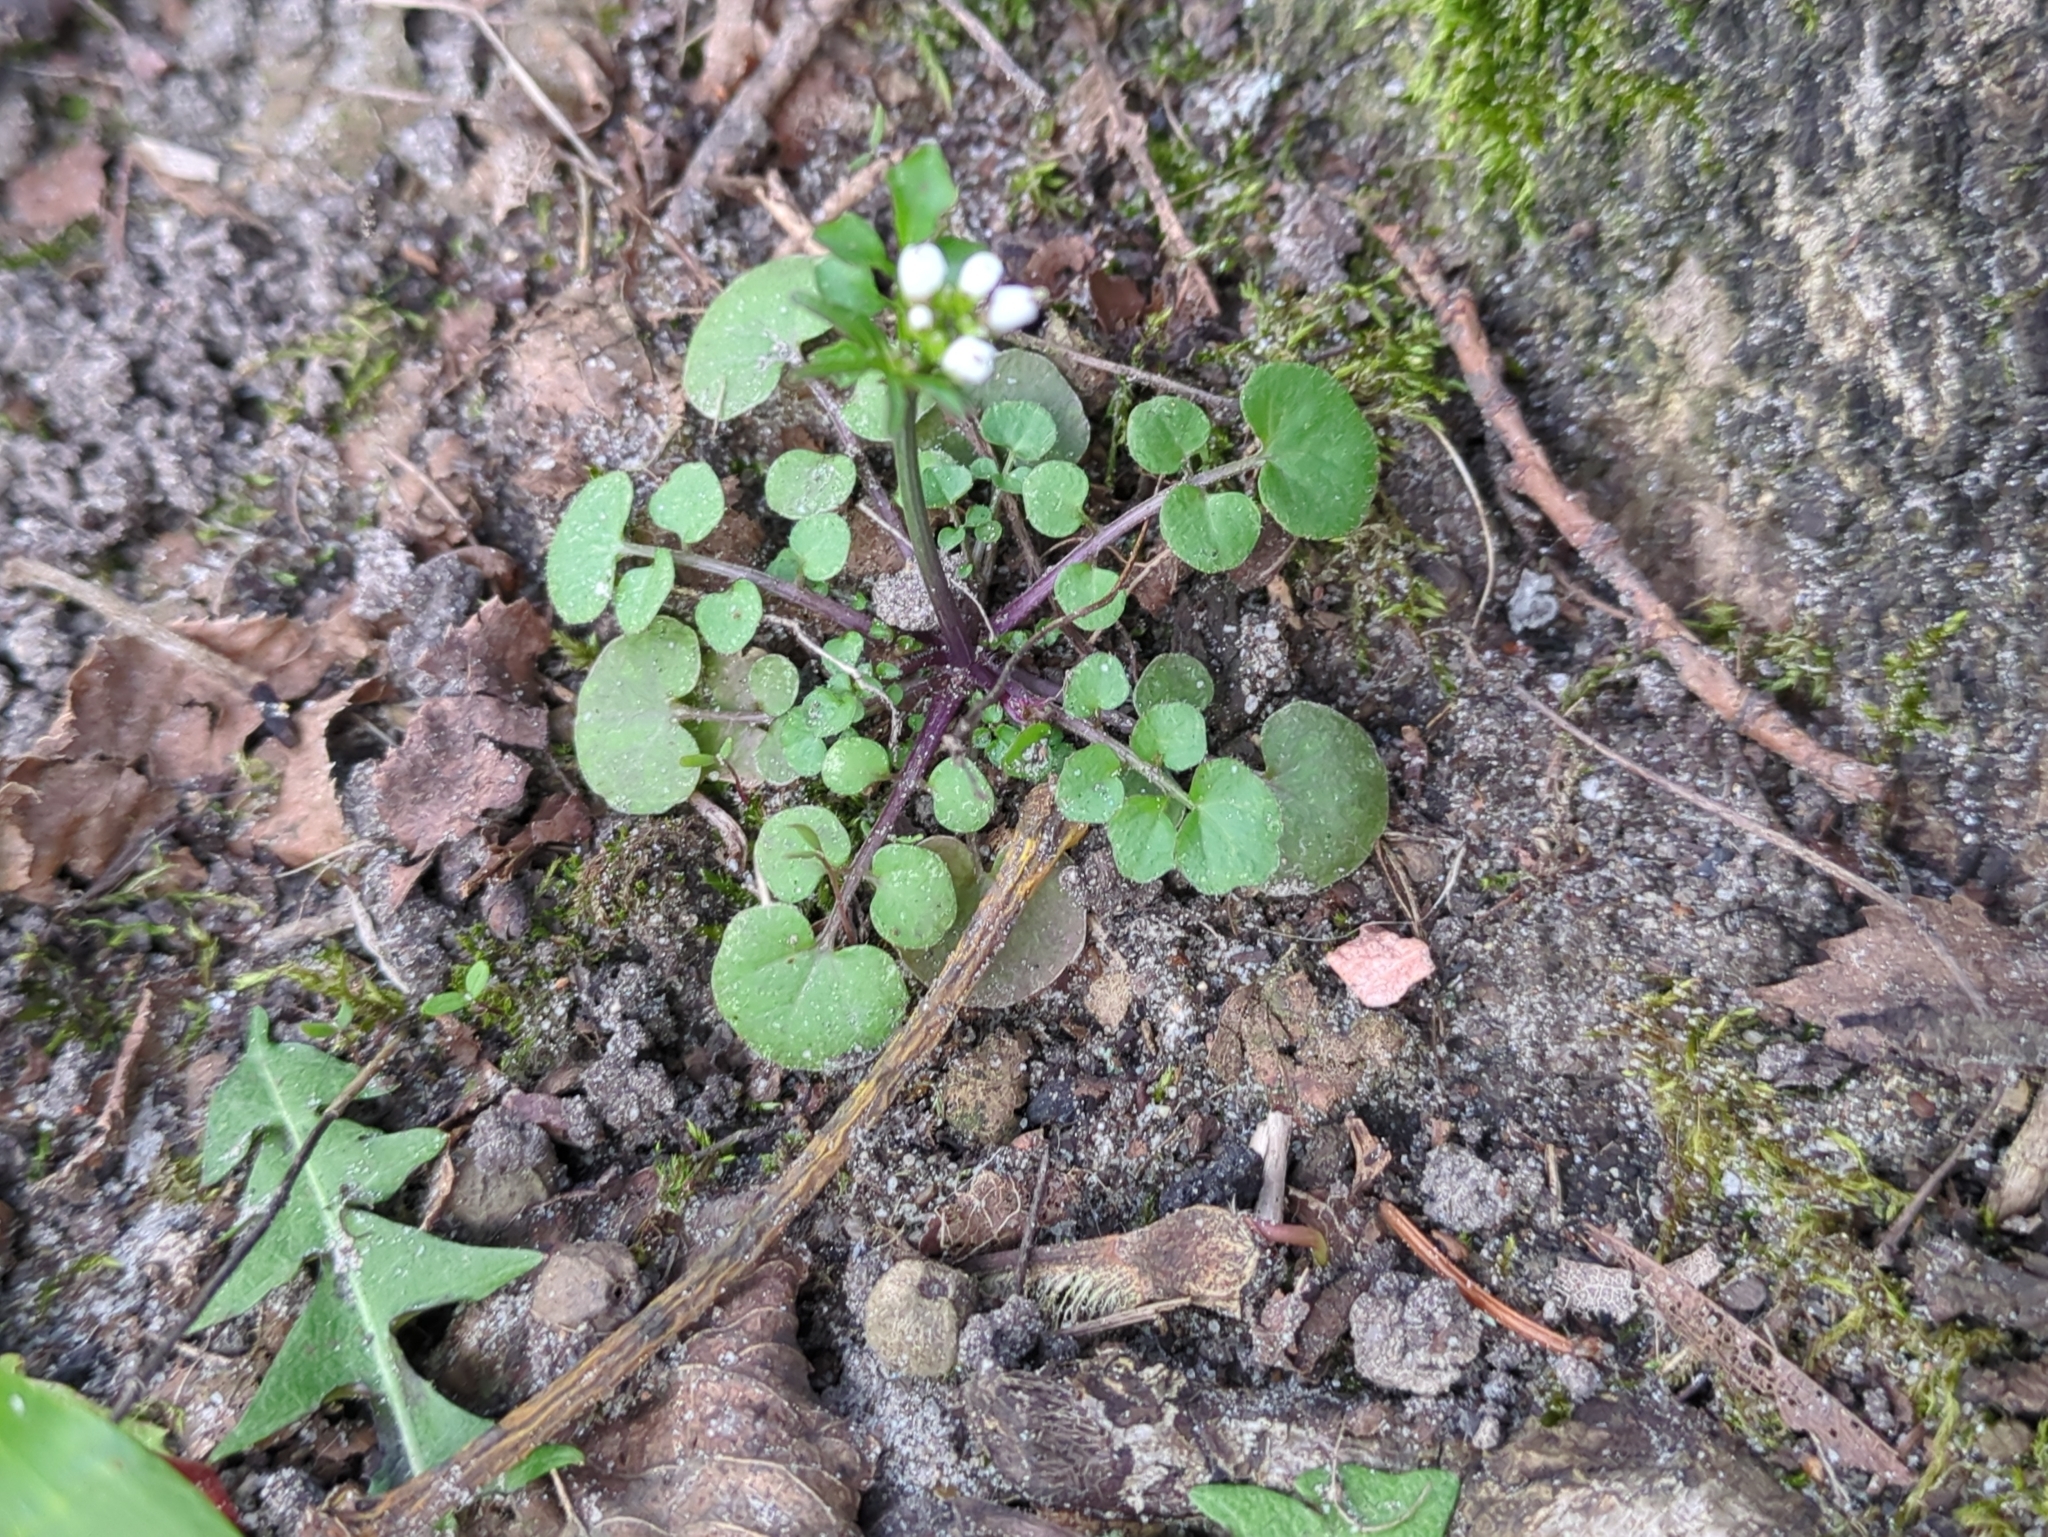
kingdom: Plantae
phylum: Tracheophyta
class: Magnoliopsida
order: Brassicales
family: Brassicaceae
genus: Cardamine
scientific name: Cardamine hirsuta
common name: Hairy bittercress
